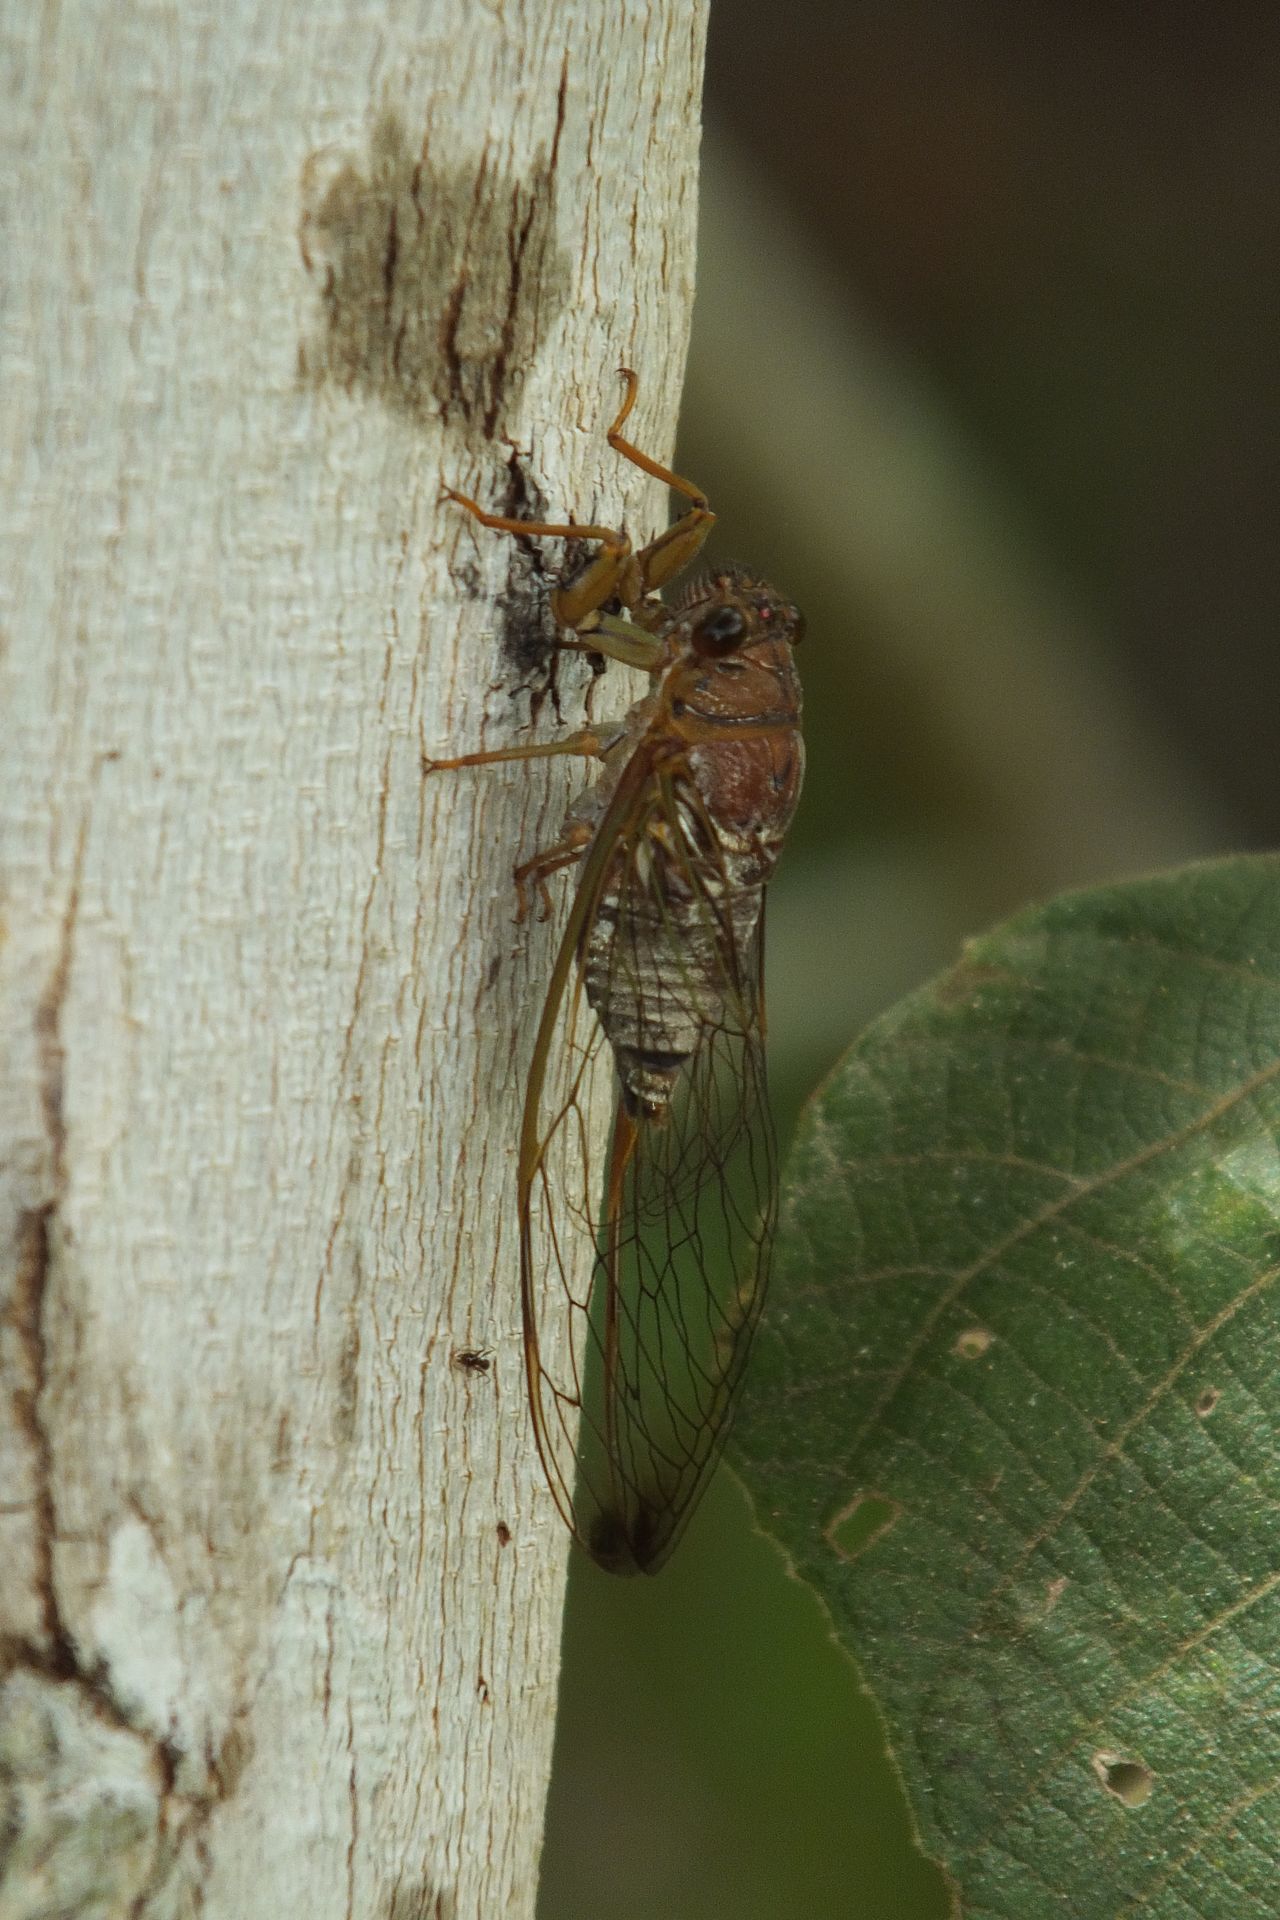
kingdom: Animalia
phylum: Arthropoda
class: Insecta
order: Hemiptera
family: Cicadidae
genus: Tamasa
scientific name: Tamasa doddi
